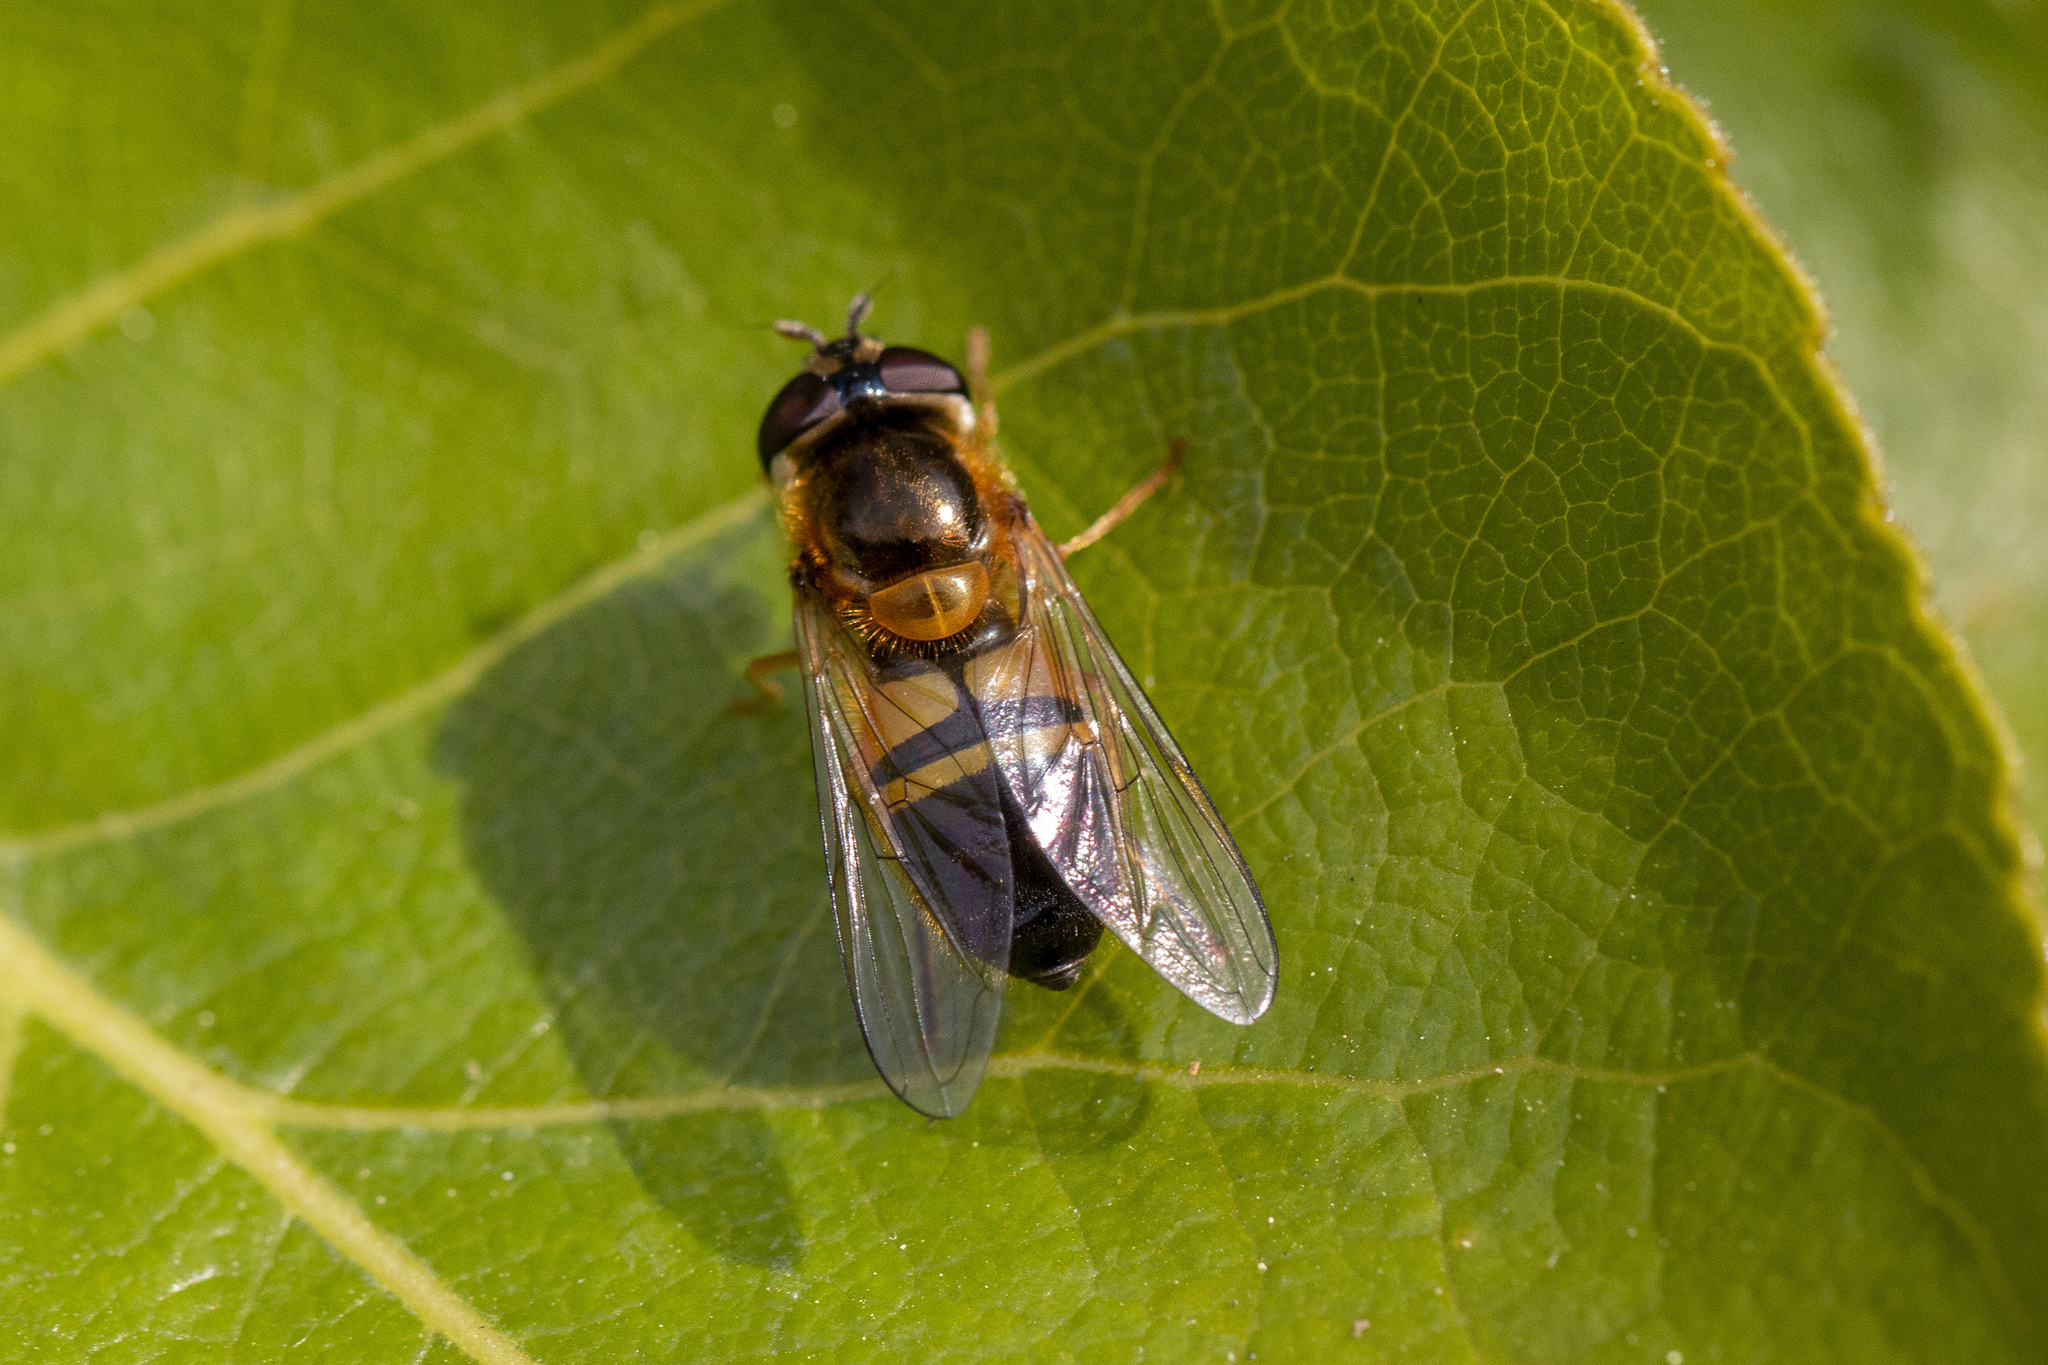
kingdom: Animalia
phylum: Arthropoda
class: Insecta
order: Diptera
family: Syrphidae
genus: Epistrophe
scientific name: Epistrophe eligans
